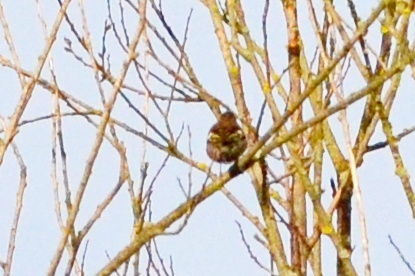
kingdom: Animalia
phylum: Chordata
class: Aves
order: Passeriformes
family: Fringillidae
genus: Fringilla
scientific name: Fringilla coelebs
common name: Common chaffinch
